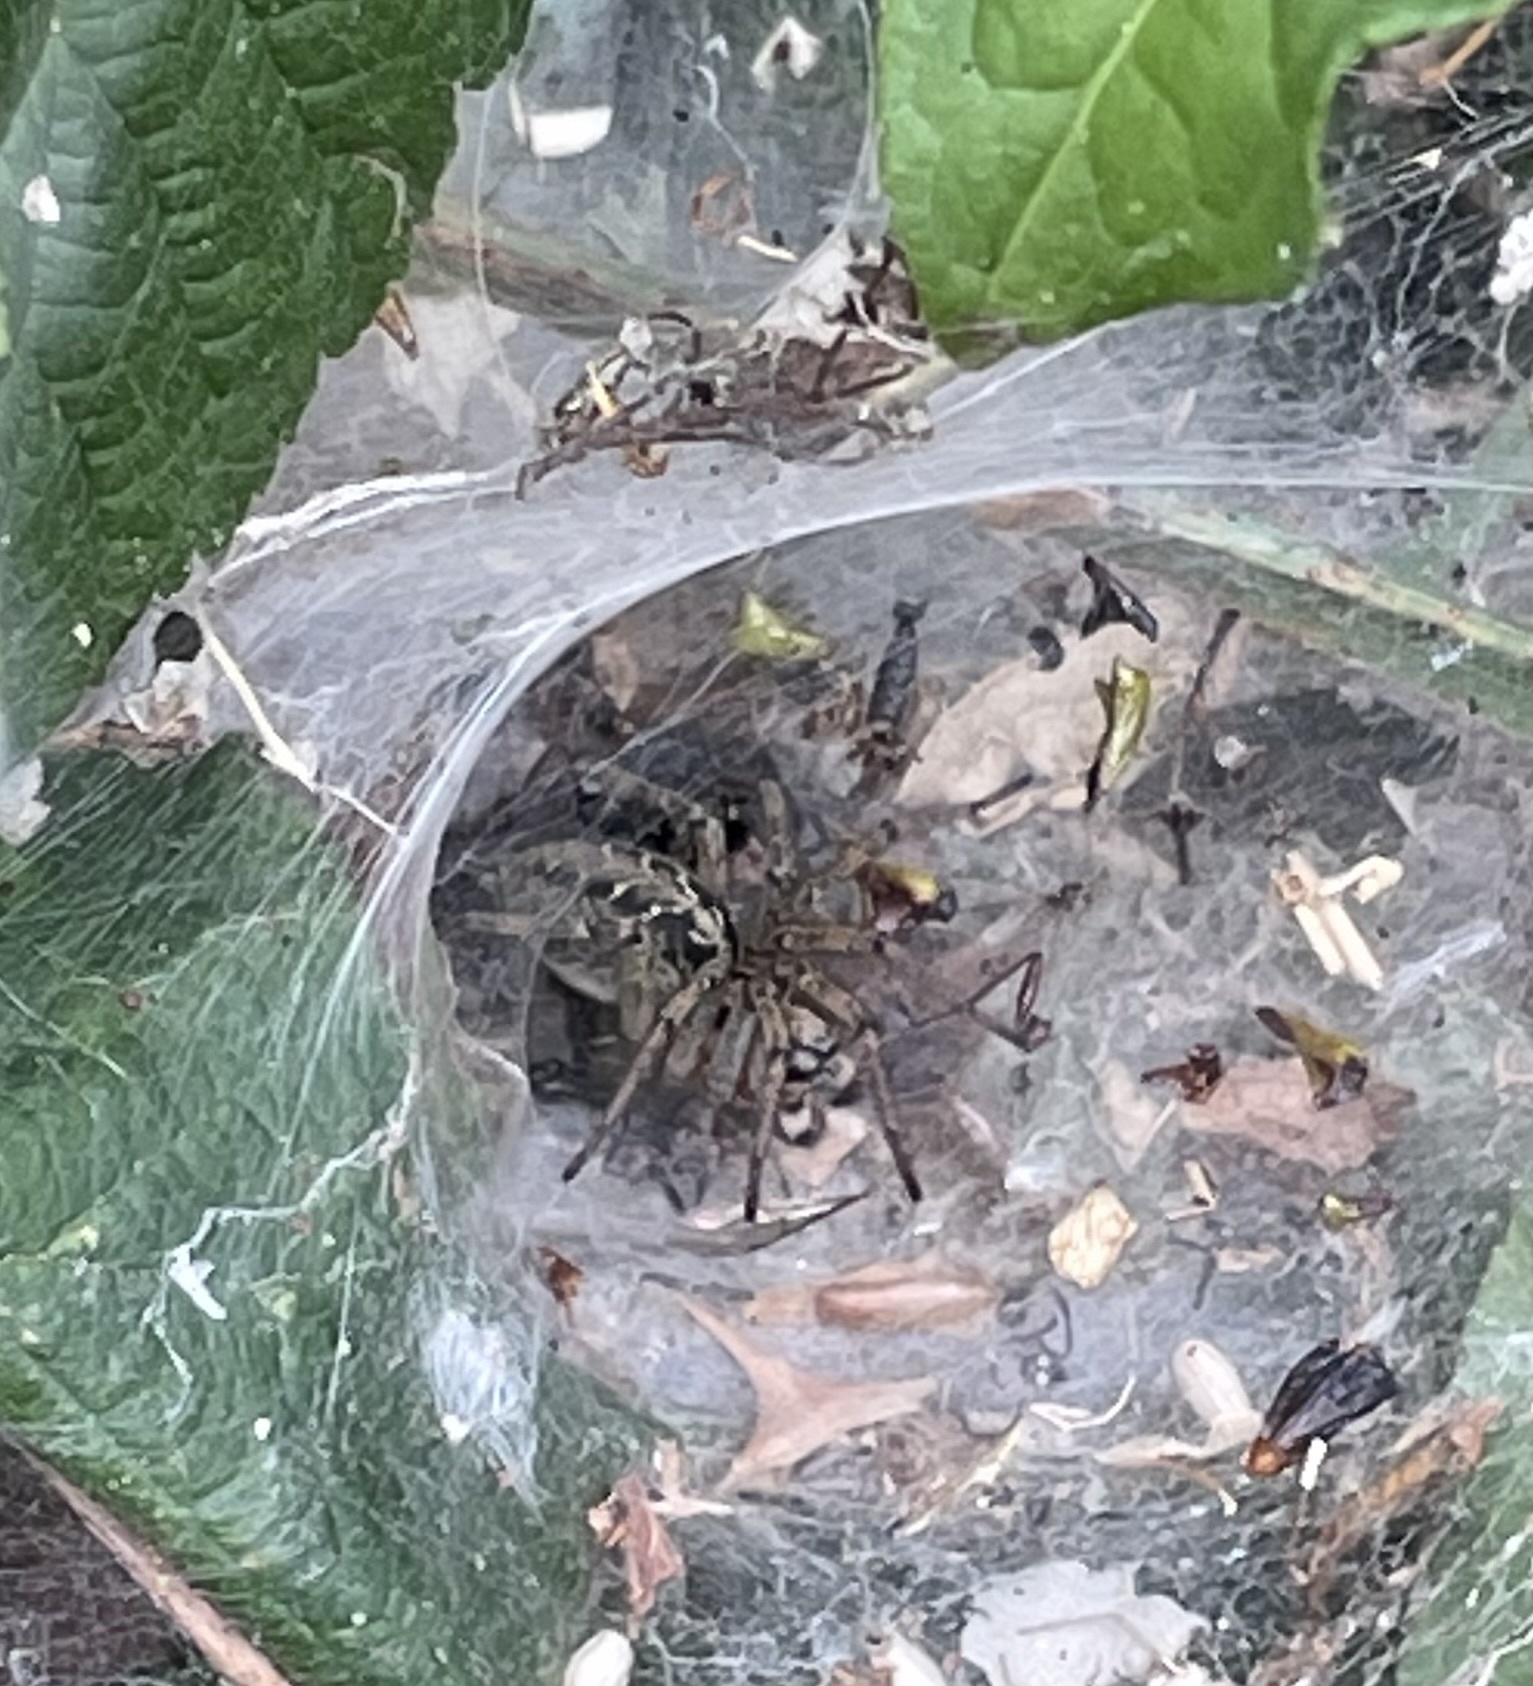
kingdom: Animalia
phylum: Arthropoda
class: Arachnida
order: Araneae
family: Agelenidae
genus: Agelena
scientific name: Agelena labyrinthica
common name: Labyrinth spider
